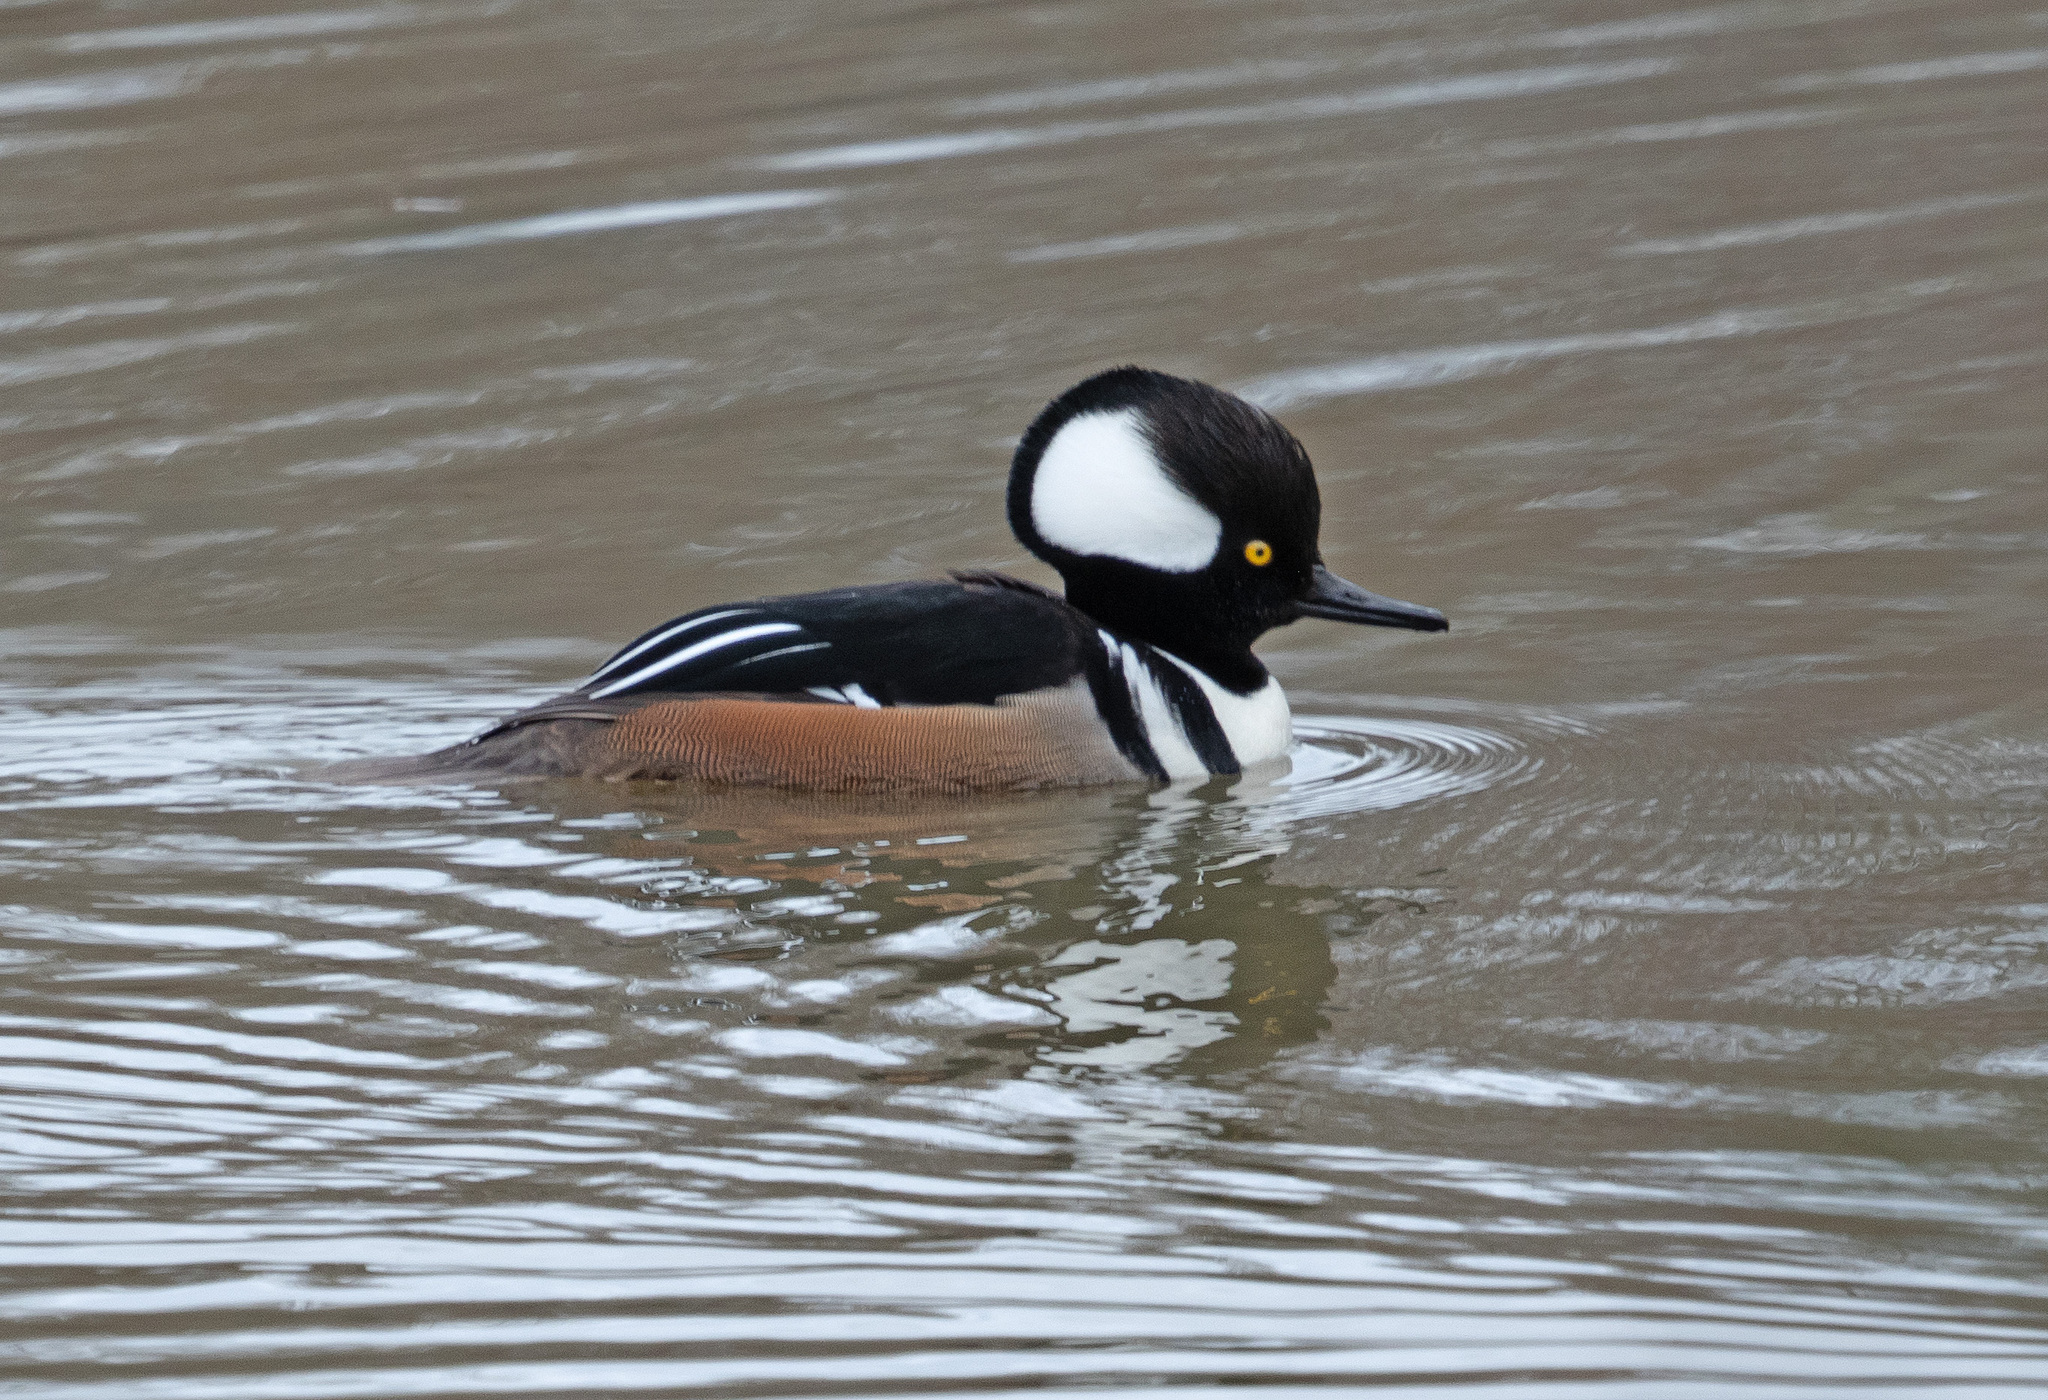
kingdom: Animalia
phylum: Chordata
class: Aves
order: Anseriformes
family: Anatidae
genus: Lophodytes
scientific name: Lophodytes cucullatus
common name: Hooded merganser
